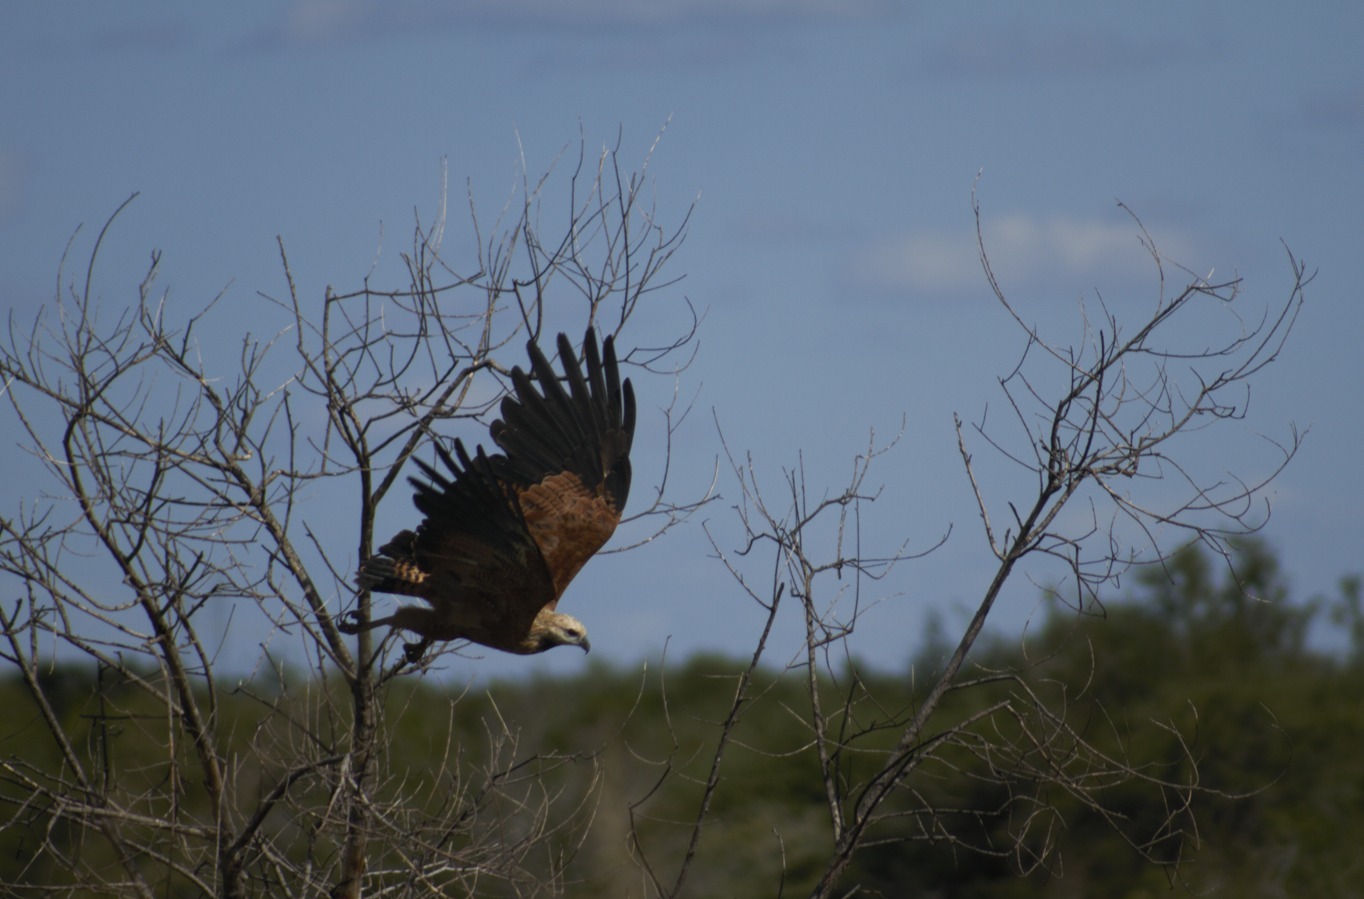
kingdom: Animalia
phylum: Chordata
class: Aves
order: Accipitriformes
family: Accipitridae
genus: Busarellus
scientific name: Busarellus nigricollis
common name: Black-collared hawk
